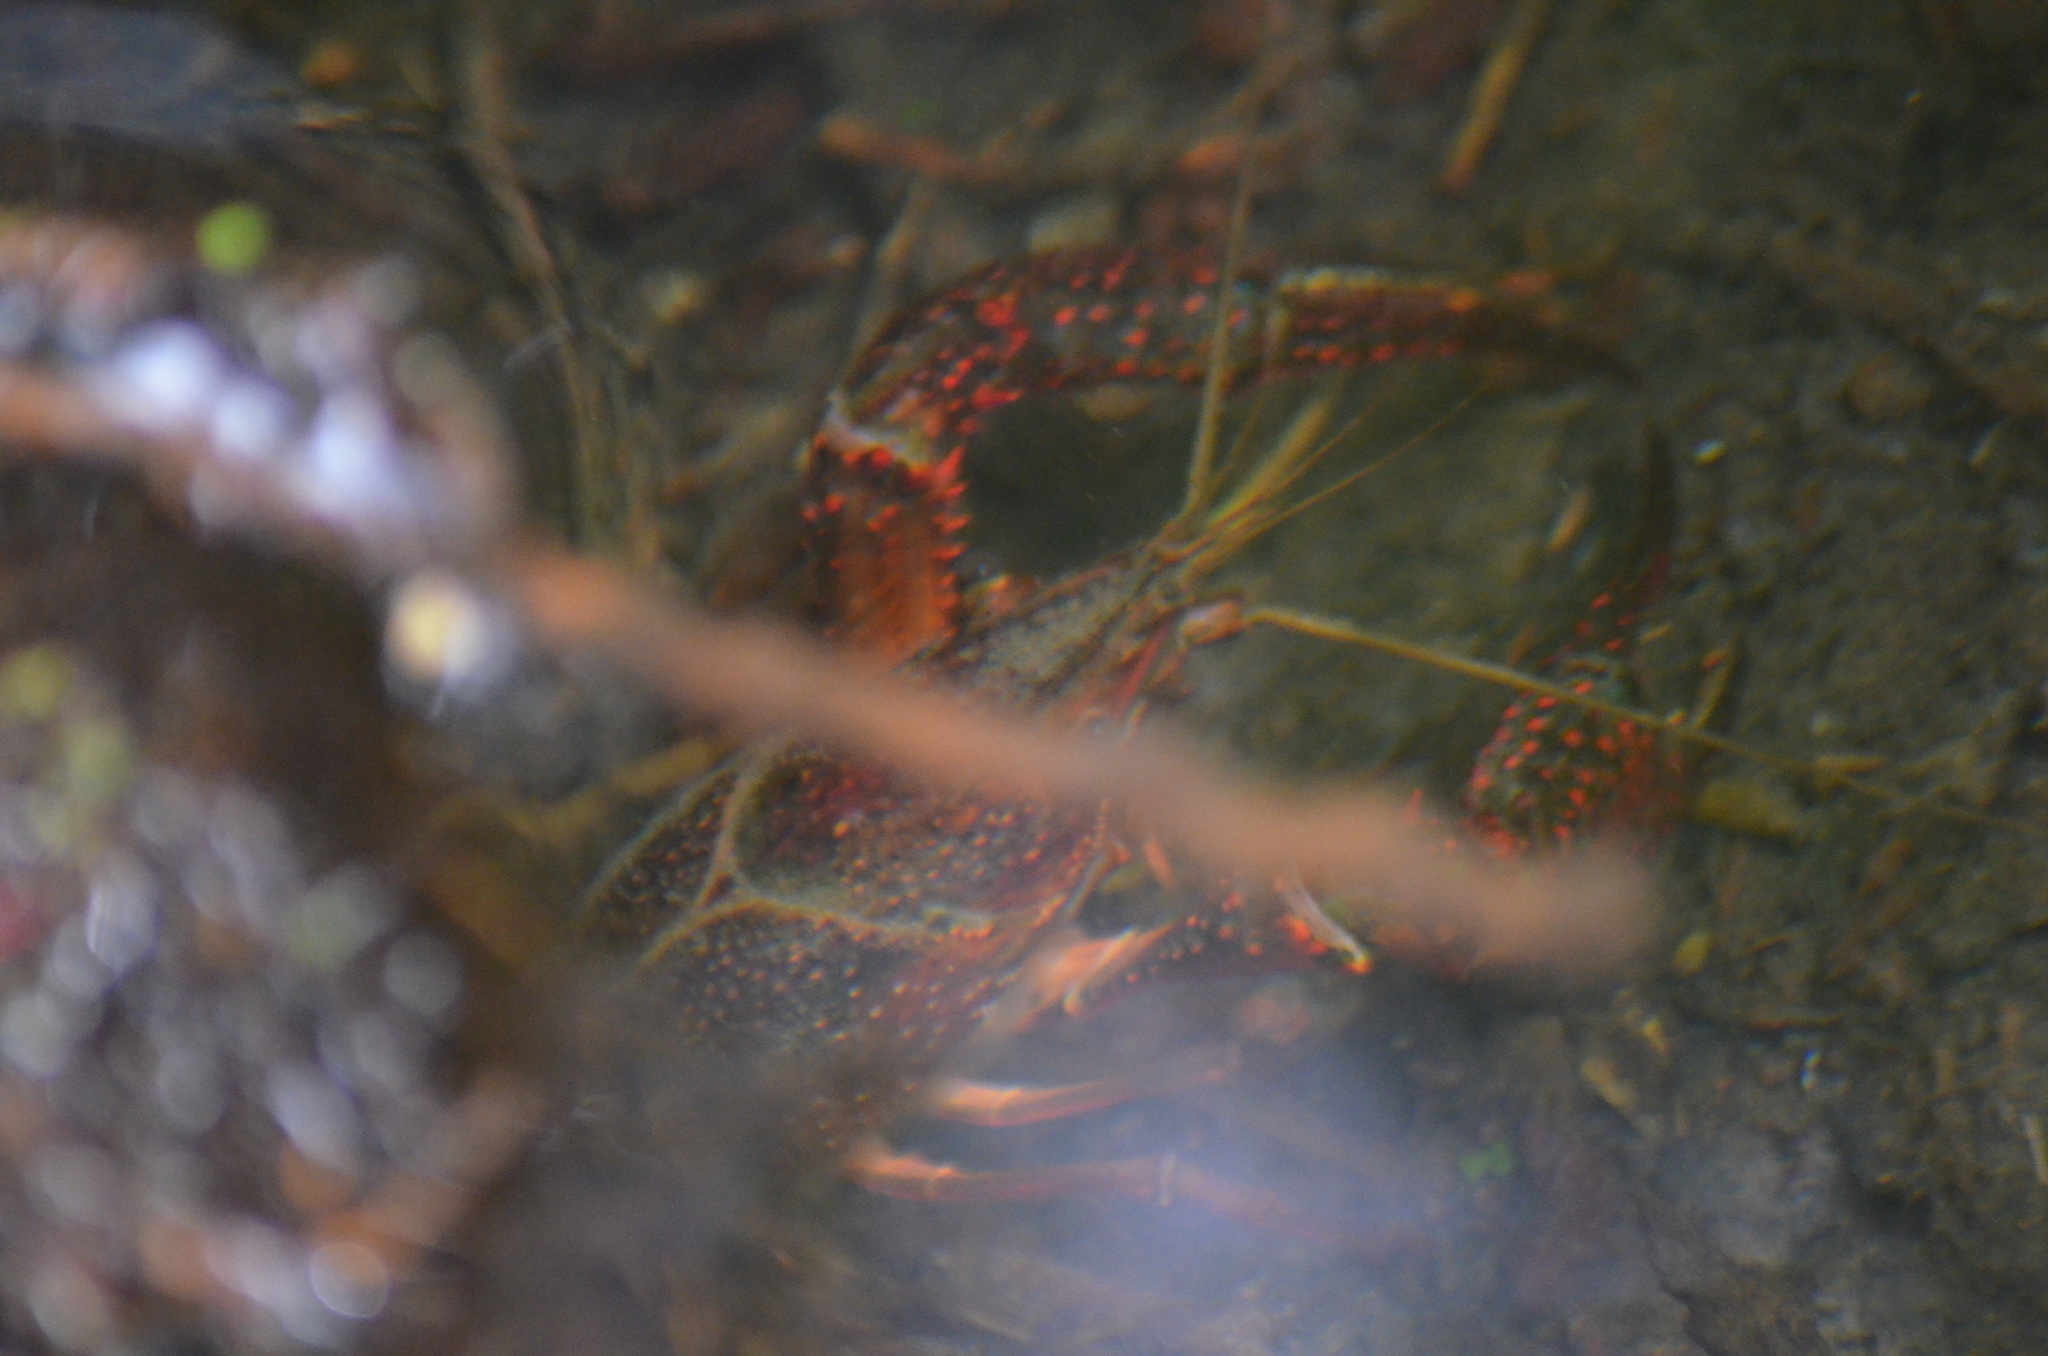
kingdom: Animalia
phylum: Arthropoda
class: Malacostraca
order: Decapoda
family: Cambaridae
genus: Procambarus
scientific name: Procambarus clarkii
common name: Red swamp crayfish
